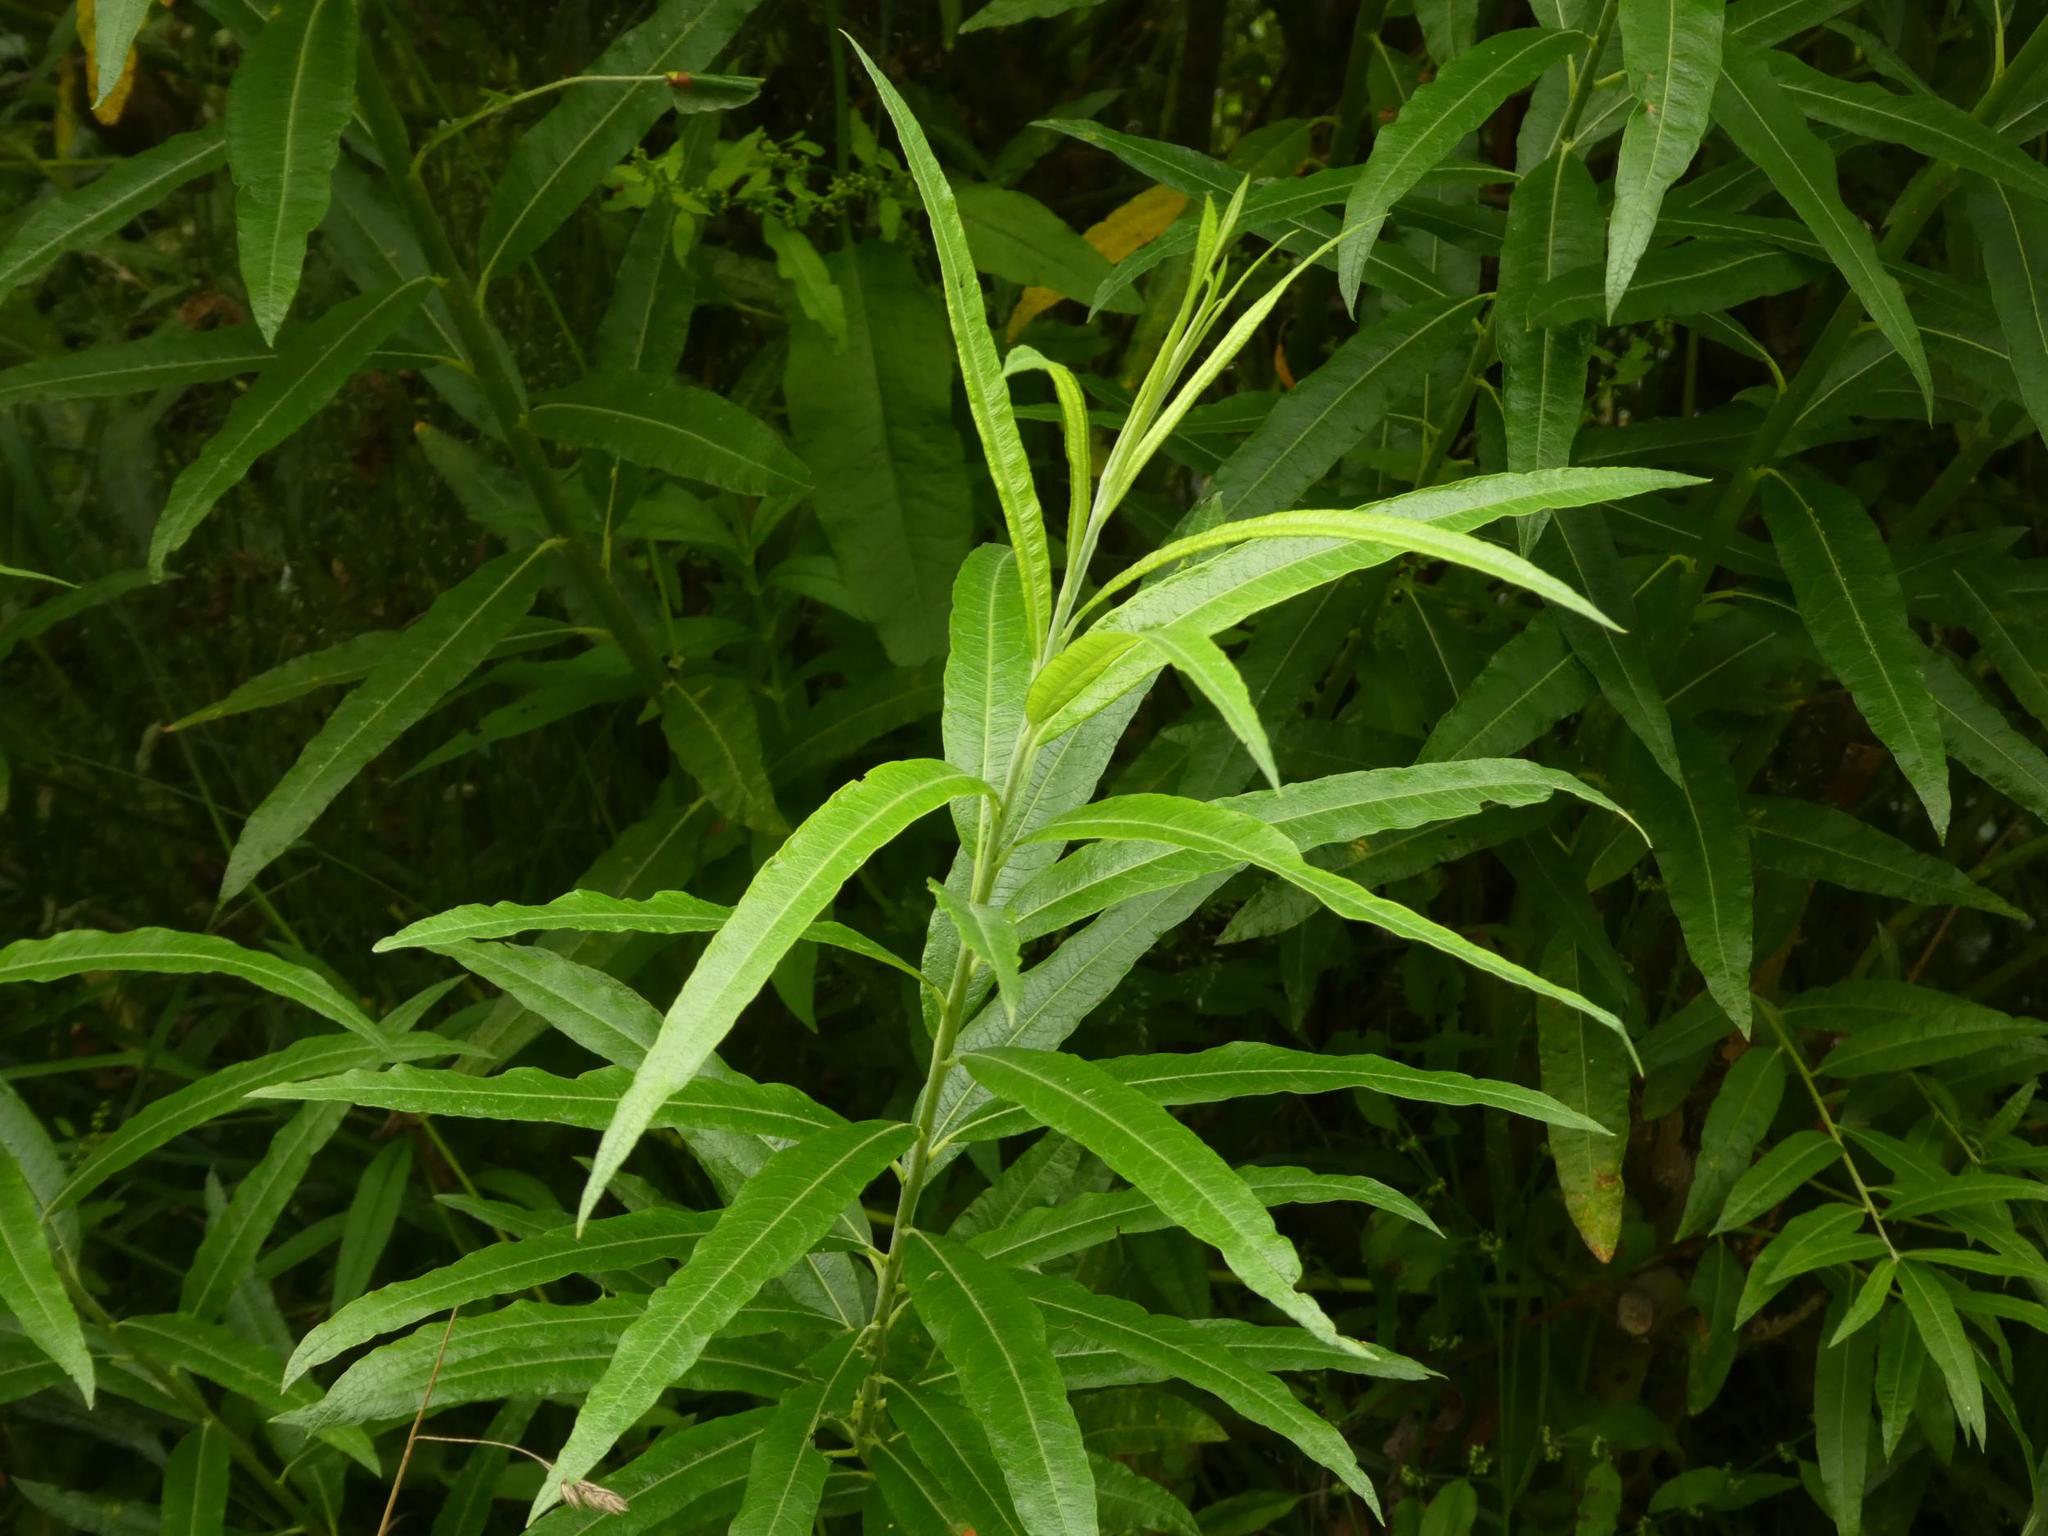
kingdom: Plantae
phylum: Tracheophyta
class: Magnoliopsida
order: Malpighiales
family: Salicaceae
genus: Salix
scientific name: Salix viminalis
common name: Osier
